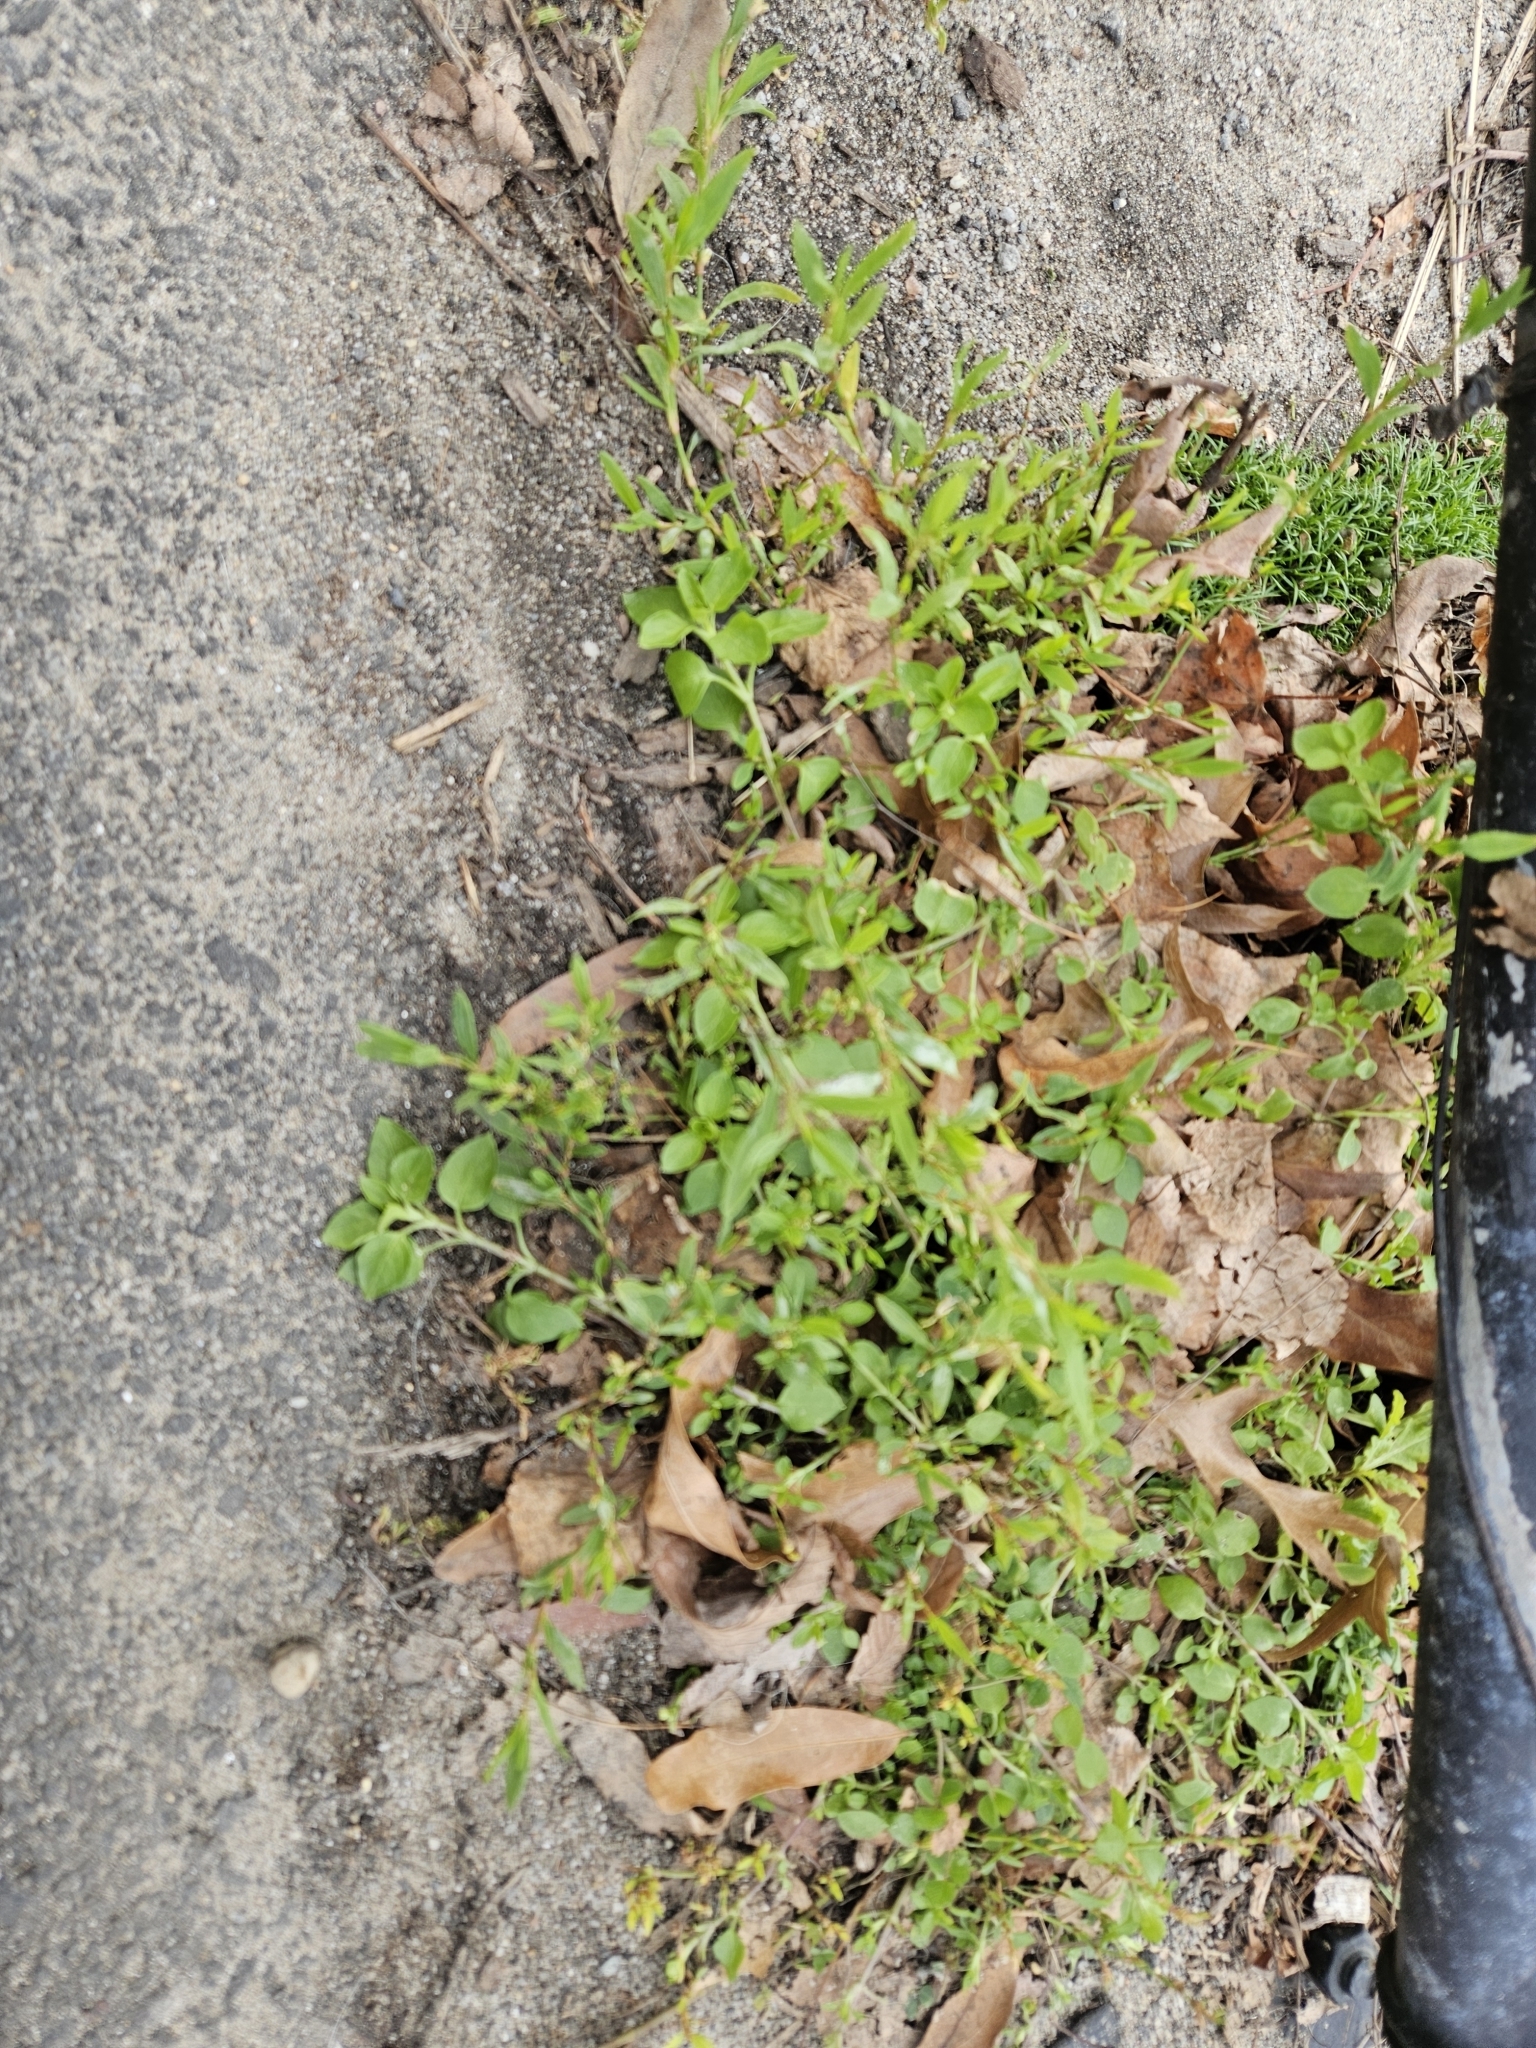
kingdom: Plantae
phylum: Tracheophyta
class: Magnoliopsida
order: Caryophyllales
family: Polygonaceae
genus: Polygonum
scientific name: Polygonum aviculare
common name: Prostrate knotweed
